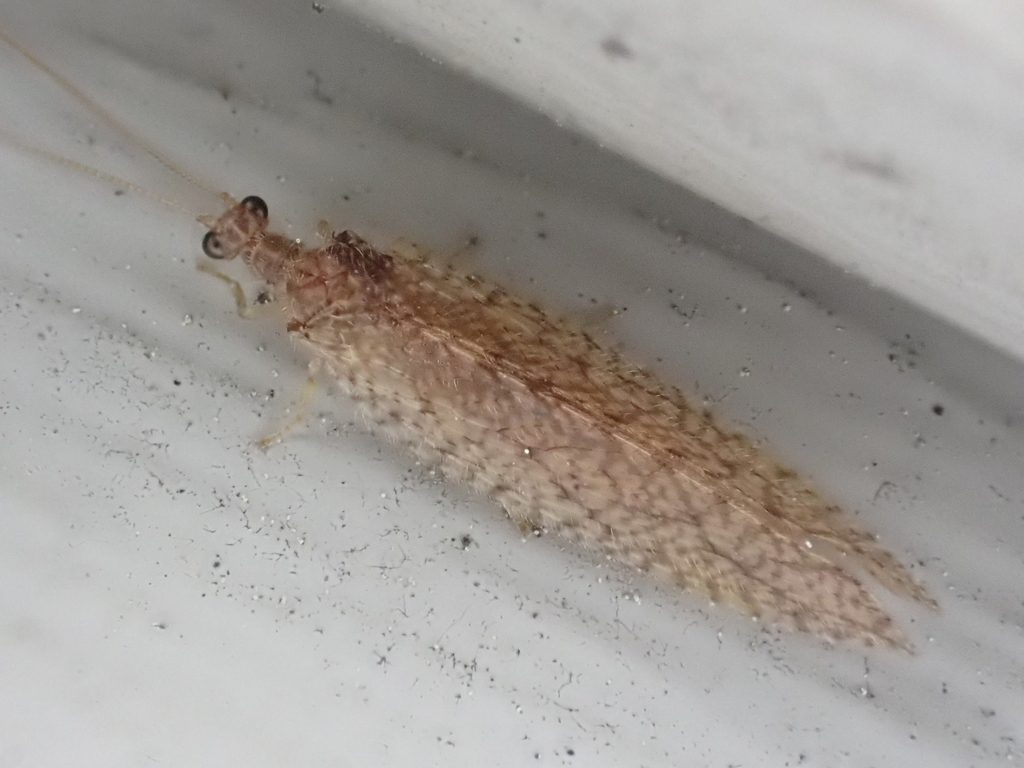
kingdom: Animalia
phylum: Arthropoda
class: Insecta
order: Neuroptera
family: Hemerobiidae
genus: Micromus
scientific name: Micromus posticus
